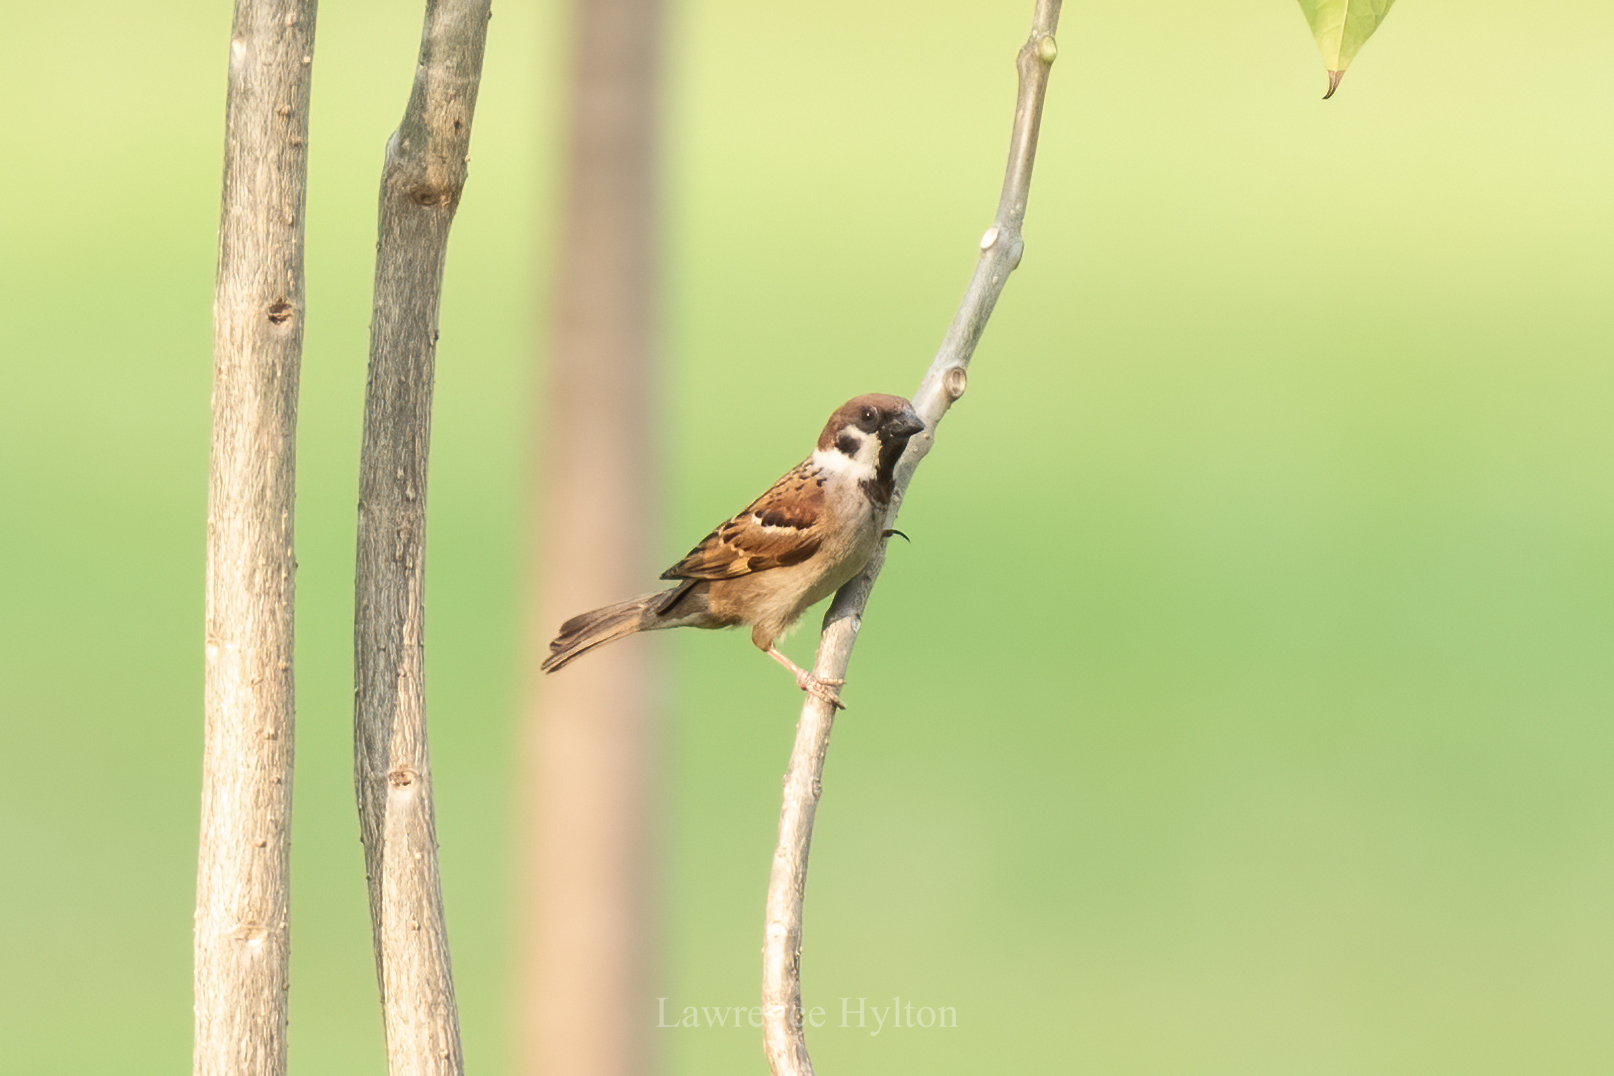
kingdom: Animalia
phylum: Chordata
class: Aves
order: Passeriformes
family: Passeridae
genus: Passer
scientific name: Passer montanus
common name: Eurasian tree sparrow
